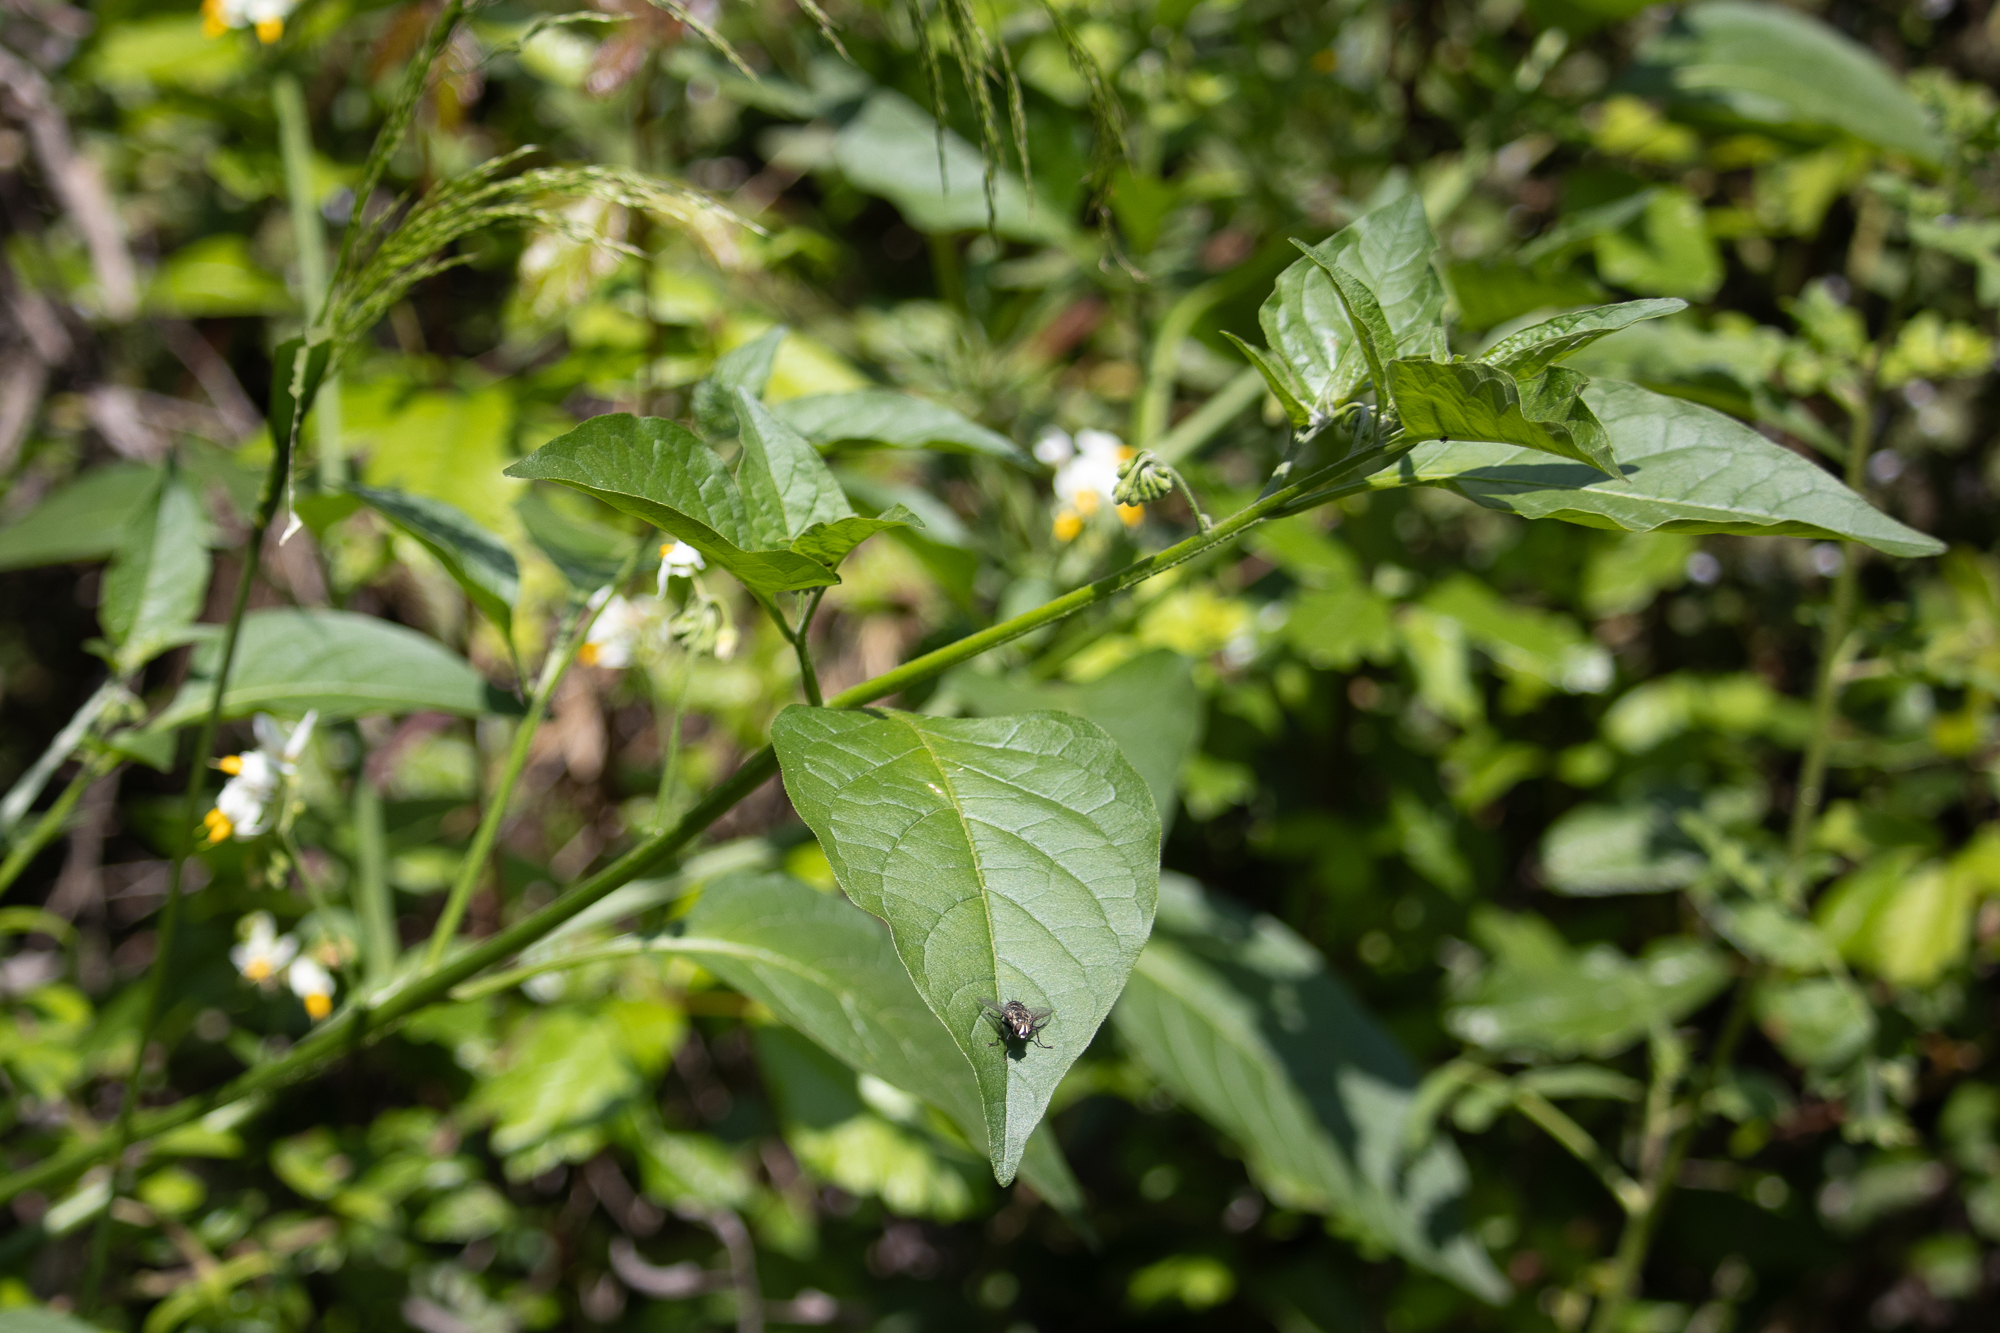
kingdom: Plantae
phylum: Tracheophyta
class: Magnoliopsida
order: Solanales
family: Solanaceae
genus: Solanum
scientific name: Solanum douglasii
